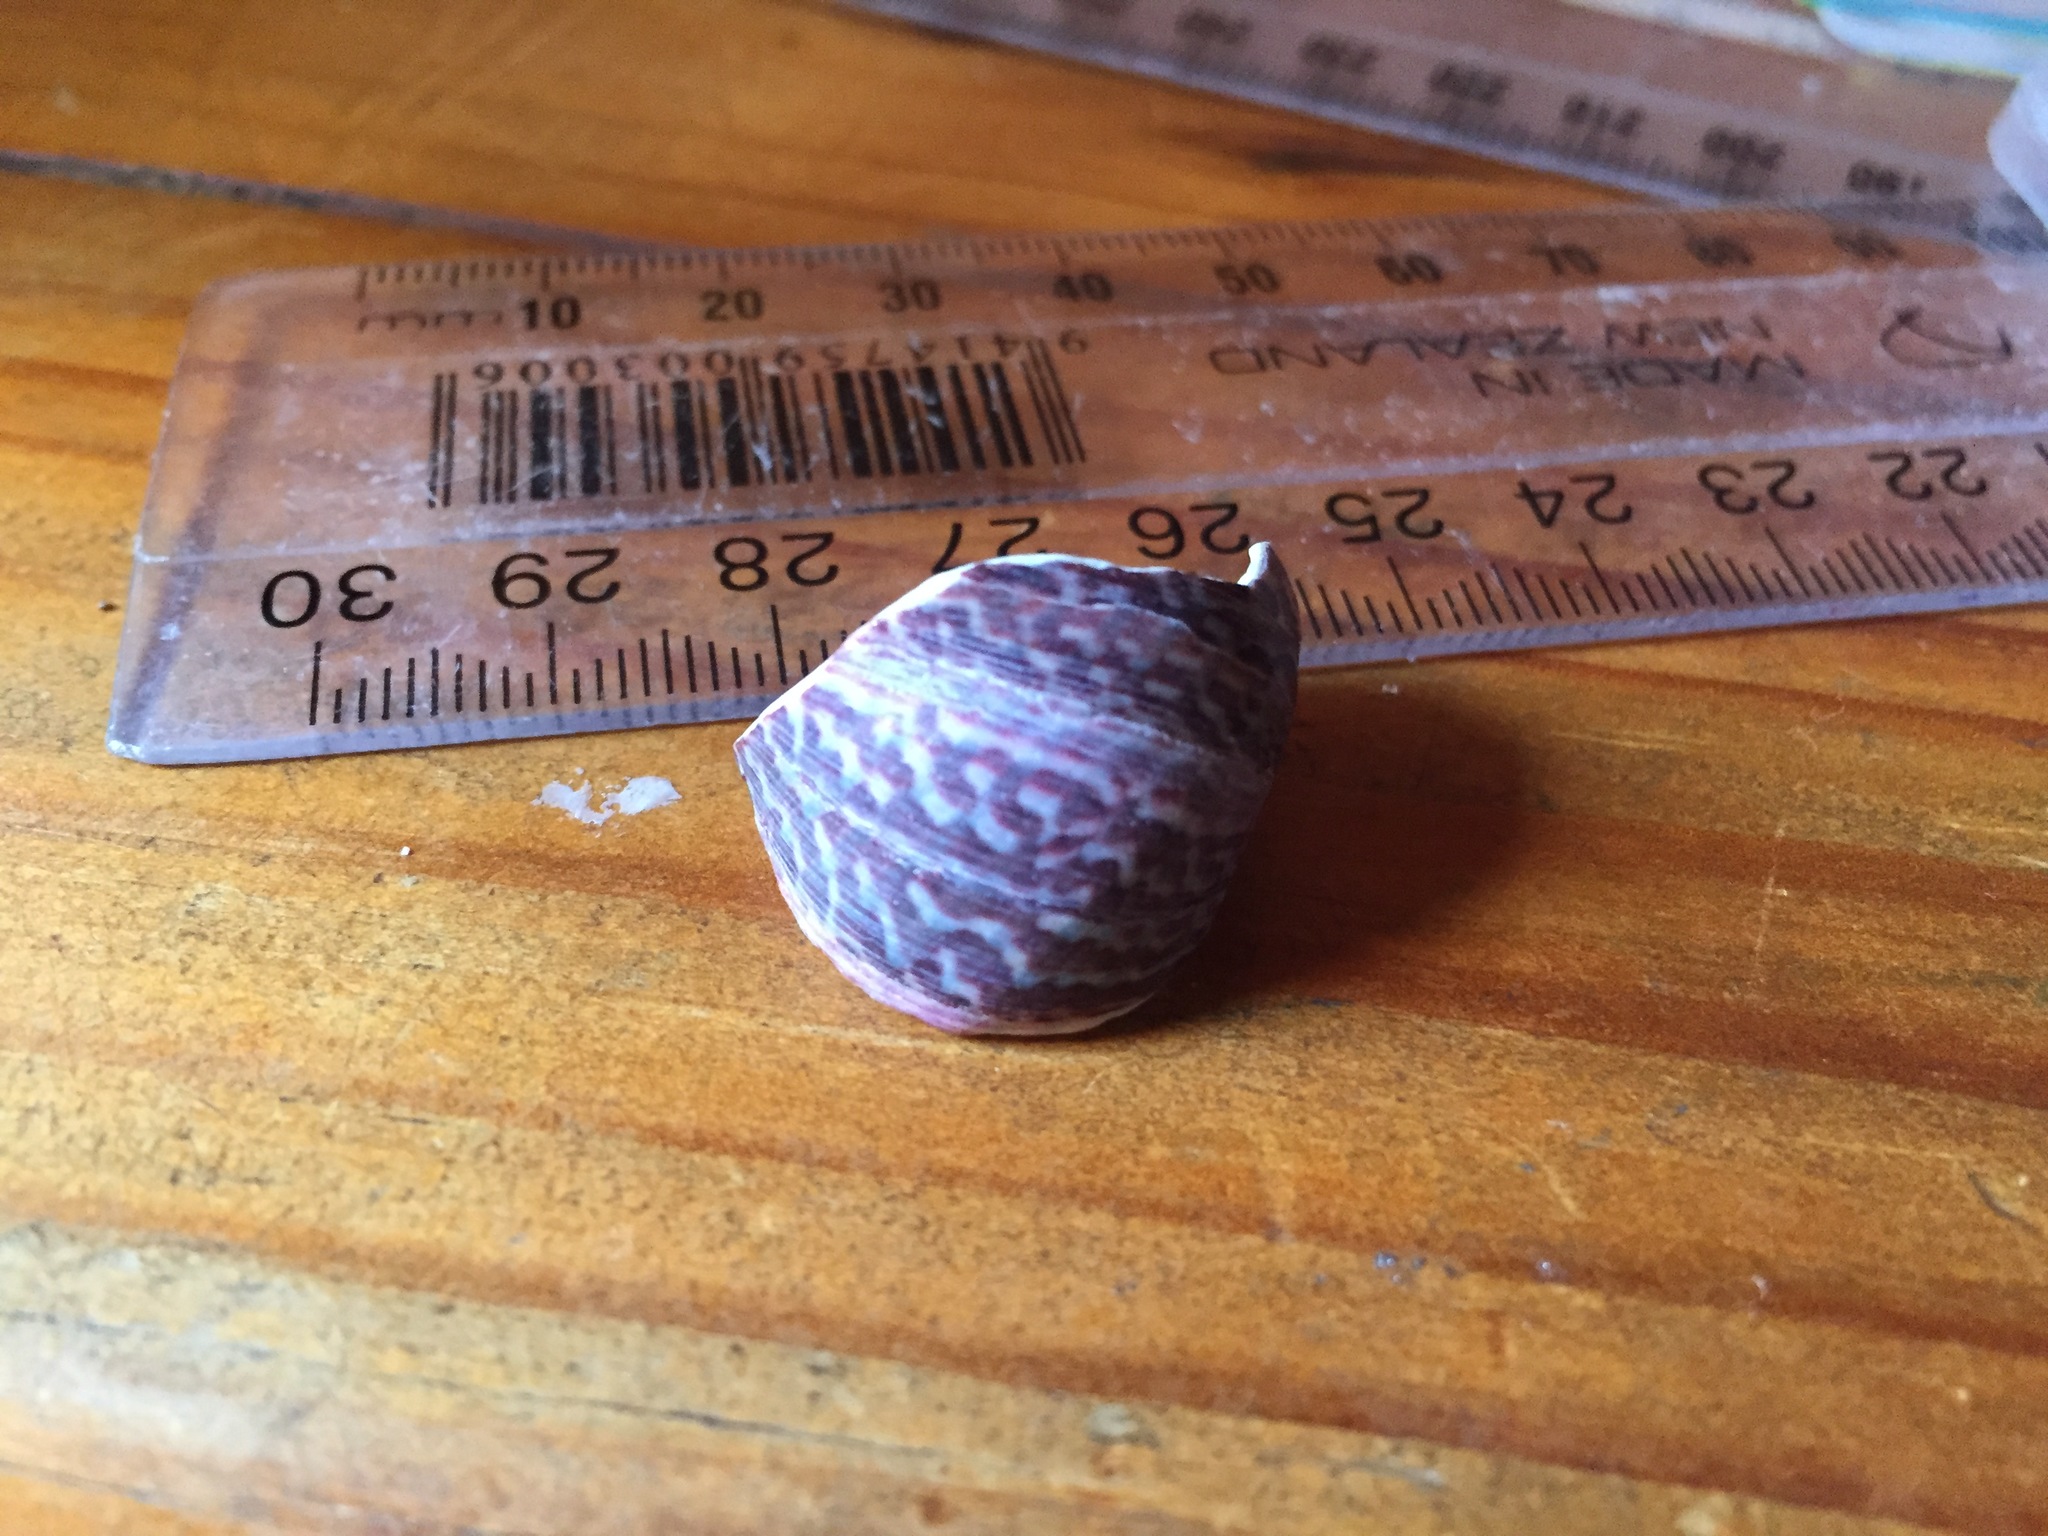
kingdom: Animalia
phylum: Mollusca
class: Gastropoda
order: Trochida
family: Trochidae
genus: Cantharidus
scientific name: Cantharidus opalus
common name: Opal jewel topsnail
